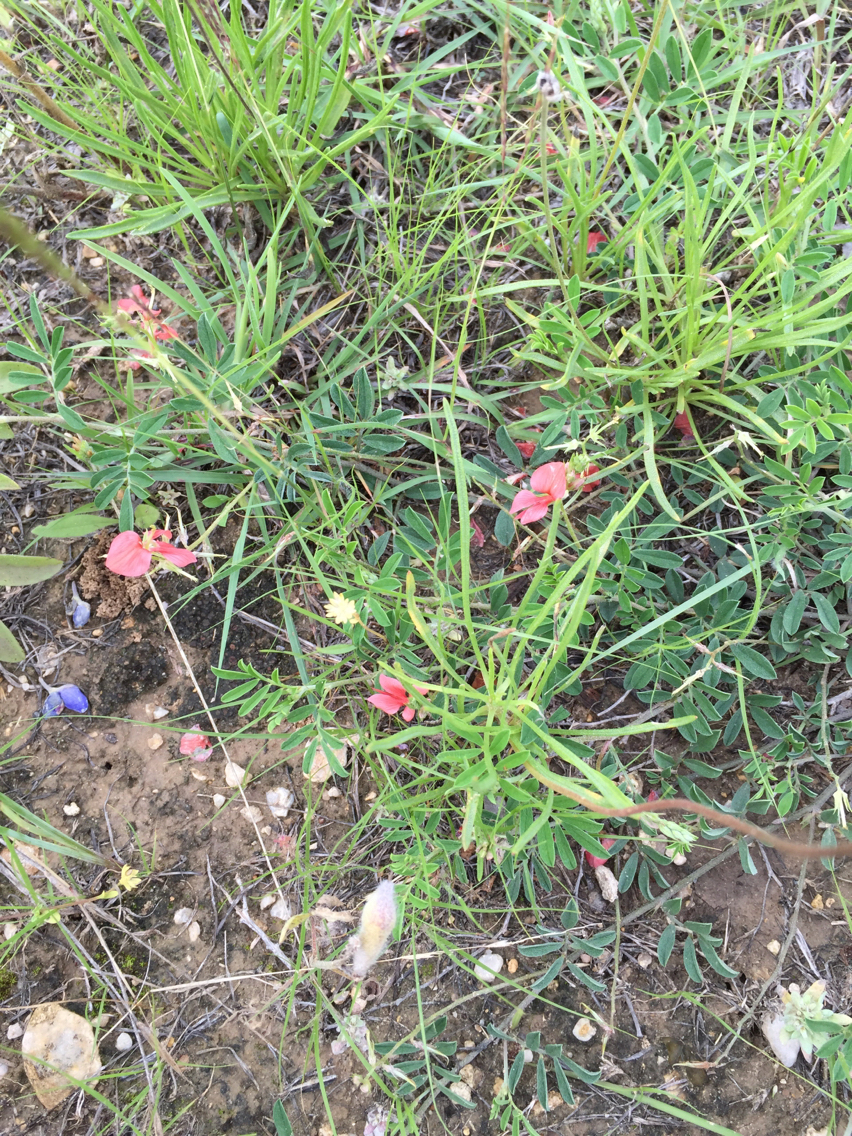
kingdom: Plantae
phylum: Tracheophyta
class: Magnoliopsida
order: Fabales
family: Fabaceae
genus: Indigofera
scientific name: Indigofera miniata
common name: Coast indigo
